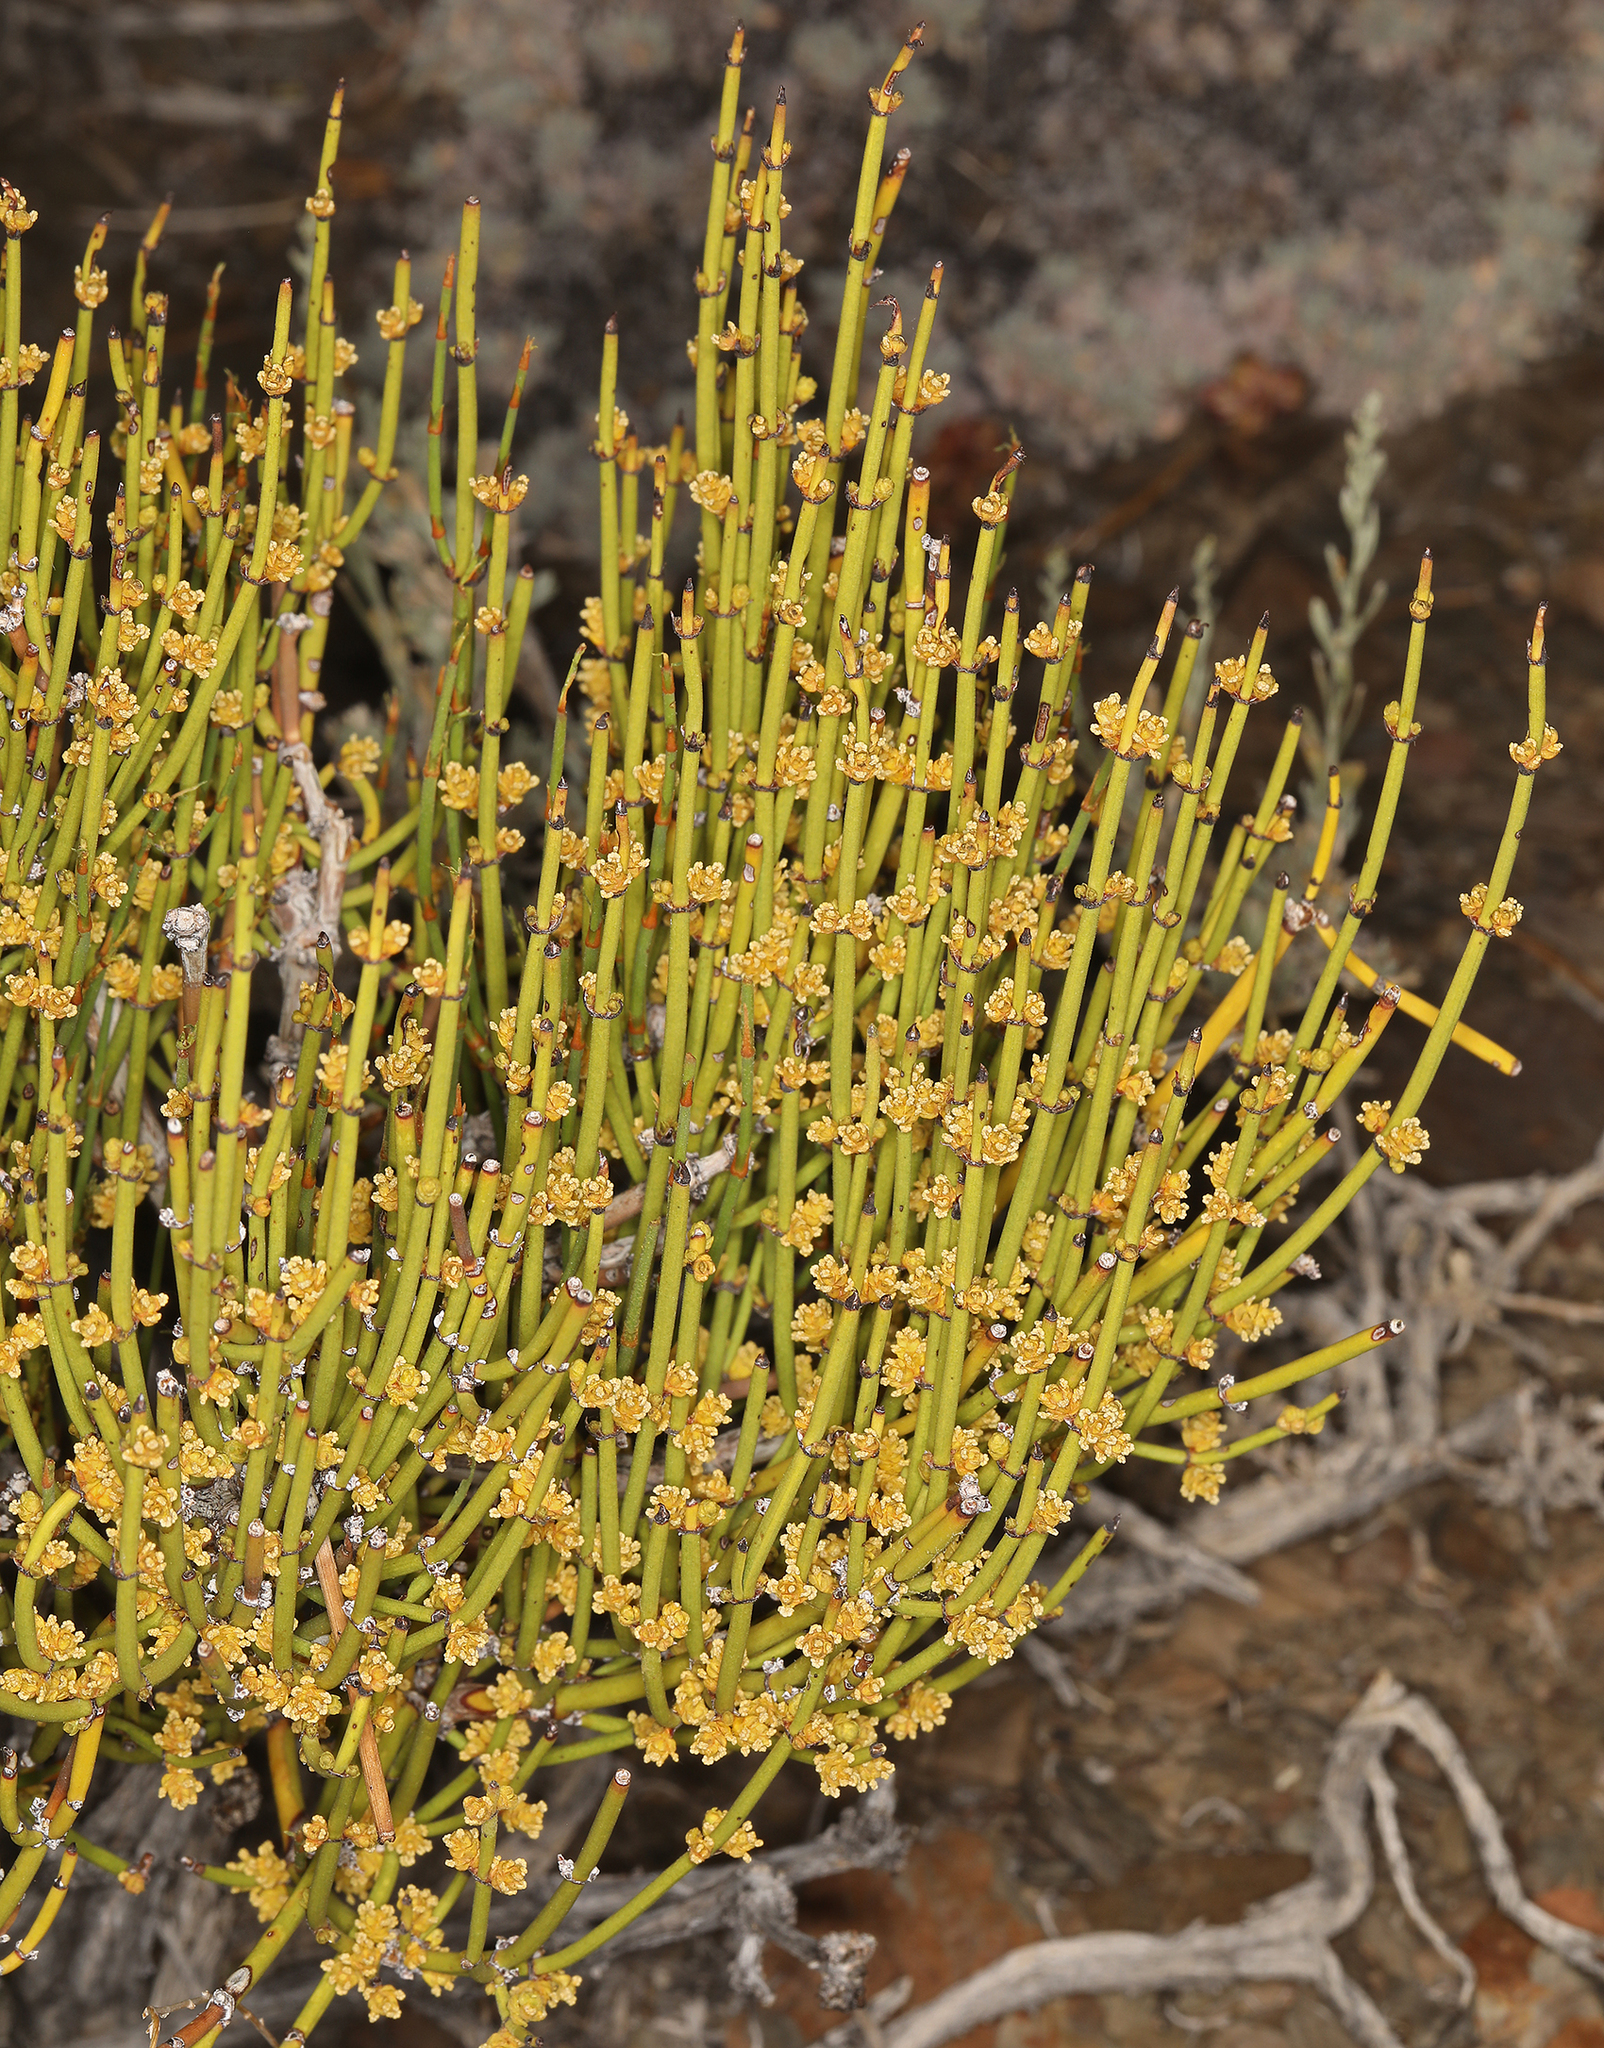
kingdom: Plantae
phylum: Tracheophyta
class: Gnetopsida
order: Ephedrales
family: Ephedraceae
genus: Ephedra
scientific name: Ephedra viridis
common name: Green ephedra
